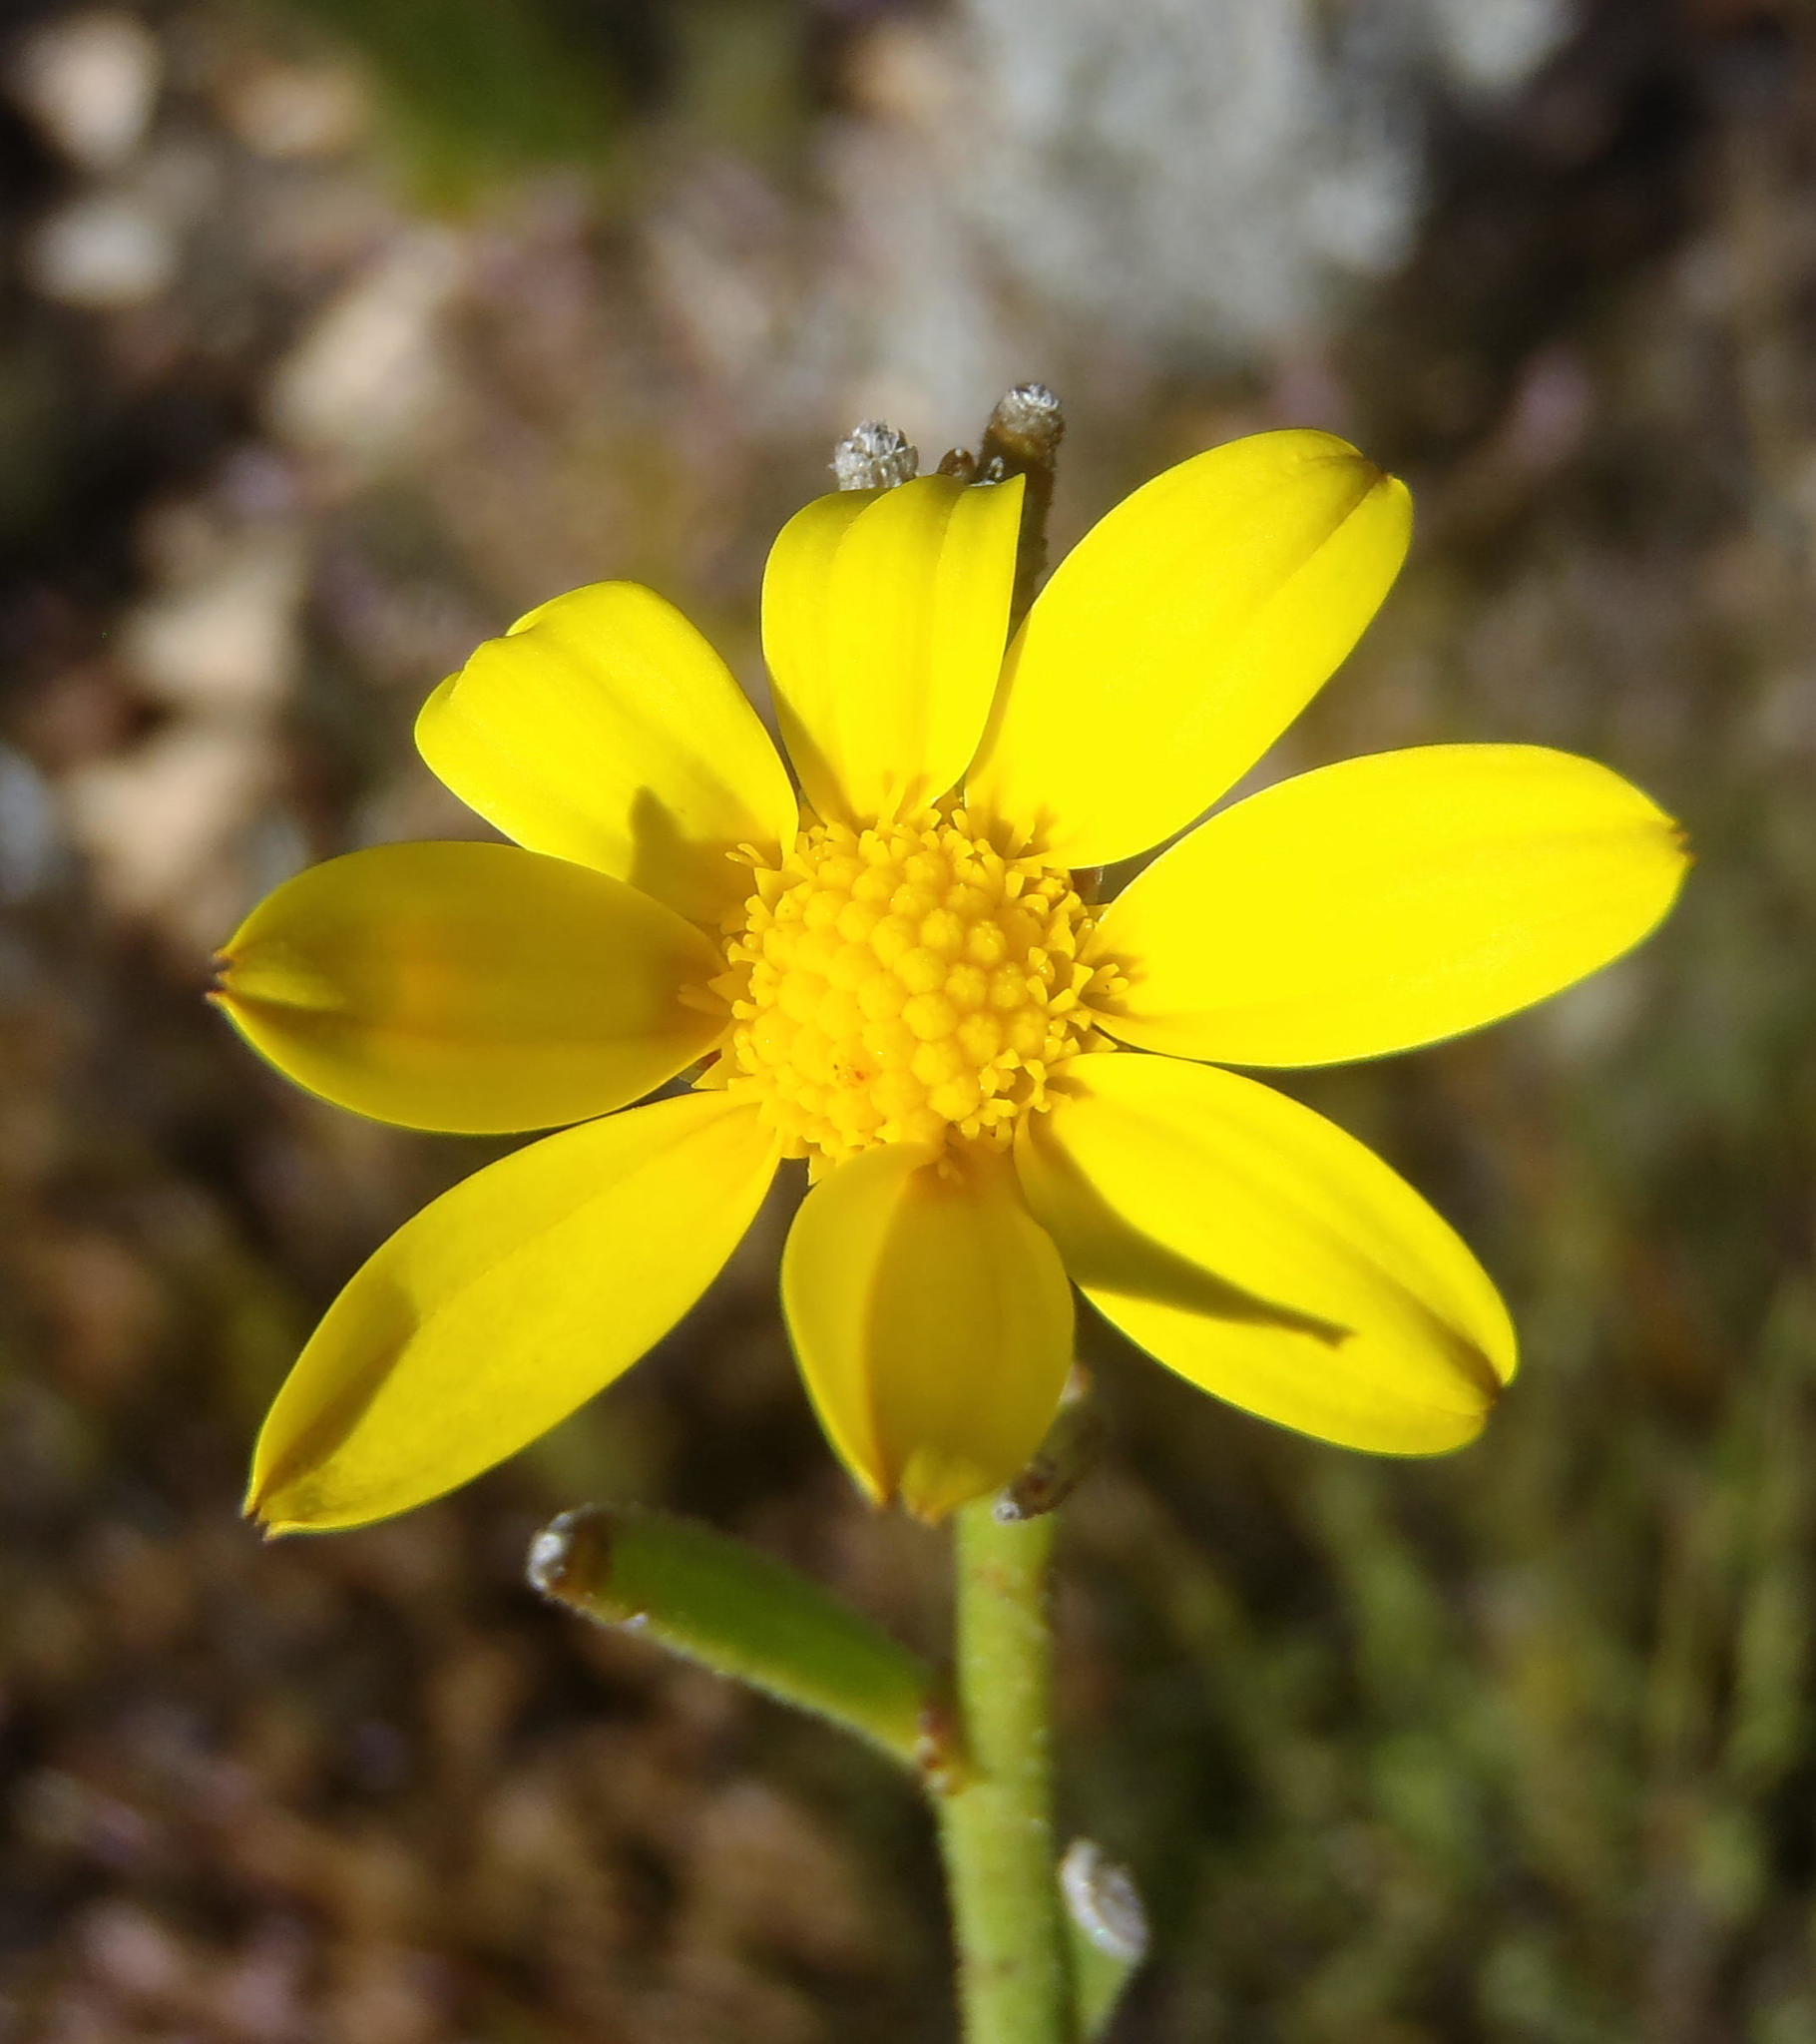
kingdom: Plantae
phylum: Tracheophyta
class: Magnoliopsida
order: Asterales
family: Asteraceae
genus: Osteospermum
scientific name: Osteospermum asperulum
